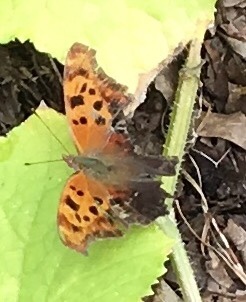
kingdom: Animalia
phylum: Arthropoda
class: Insecta
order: Lepidoptera
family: Nymphalidae
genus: Polygonia
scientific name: Polygonia interrogationis
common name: Question mark
